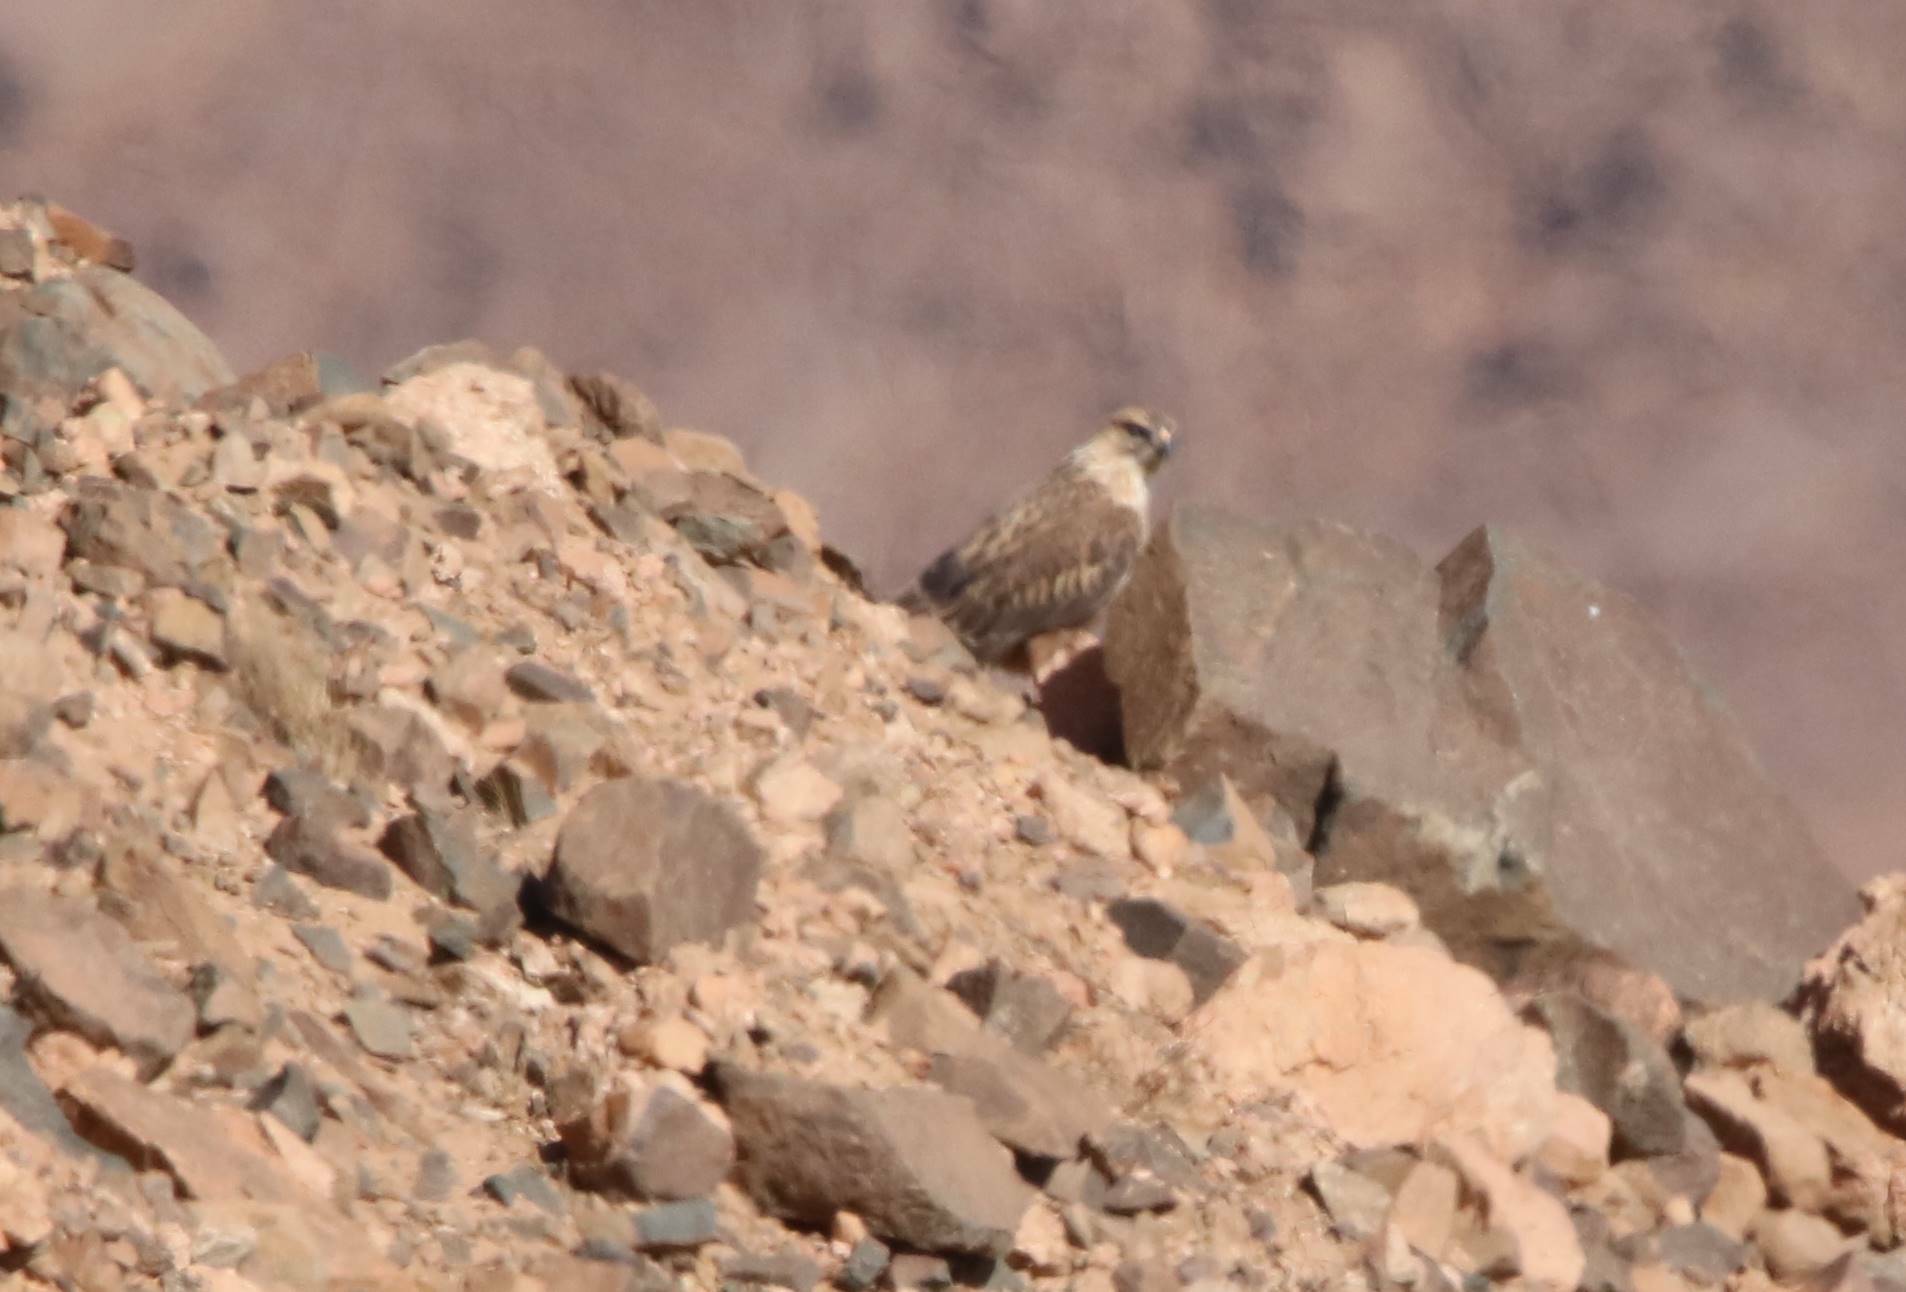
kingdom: Animalia
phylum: Chordata
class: Aves
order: Accipitriformes
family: Accipitridae
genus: Buteo
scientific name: Buteo rufinus
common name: Long-legged buzzard
